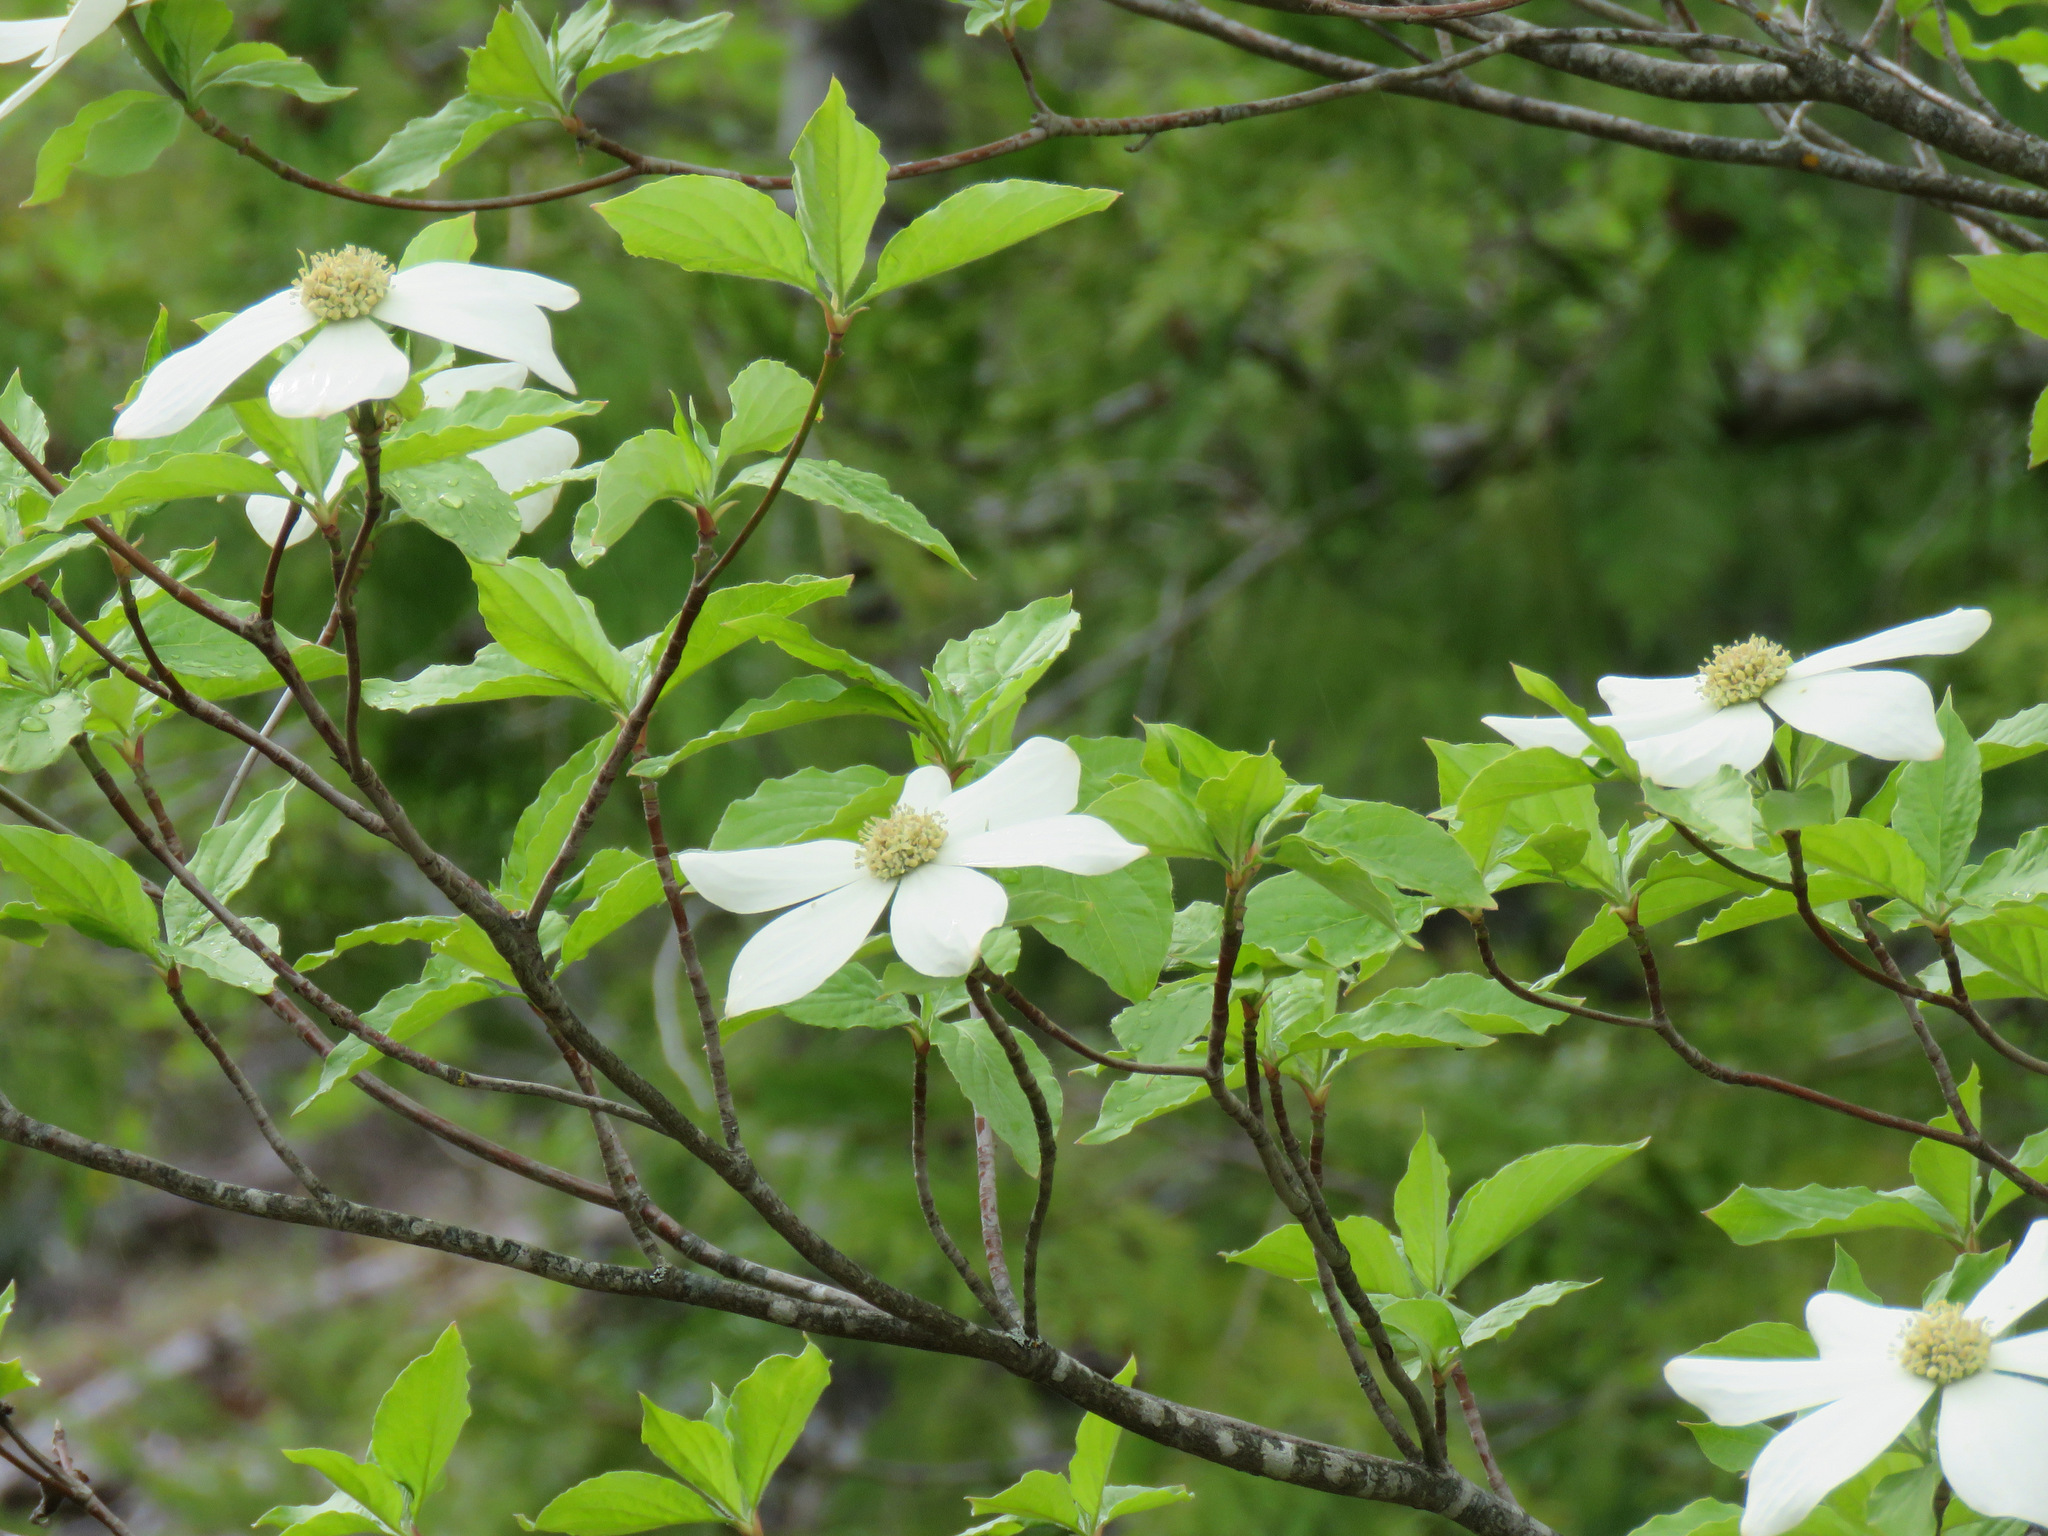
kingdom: Plantae
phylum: Tracheophyta
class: Magnoliopsida
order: Cornales
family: Cornaceae
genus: Cornus
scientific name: Cornus nuttallii
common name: Pacific dogwood
